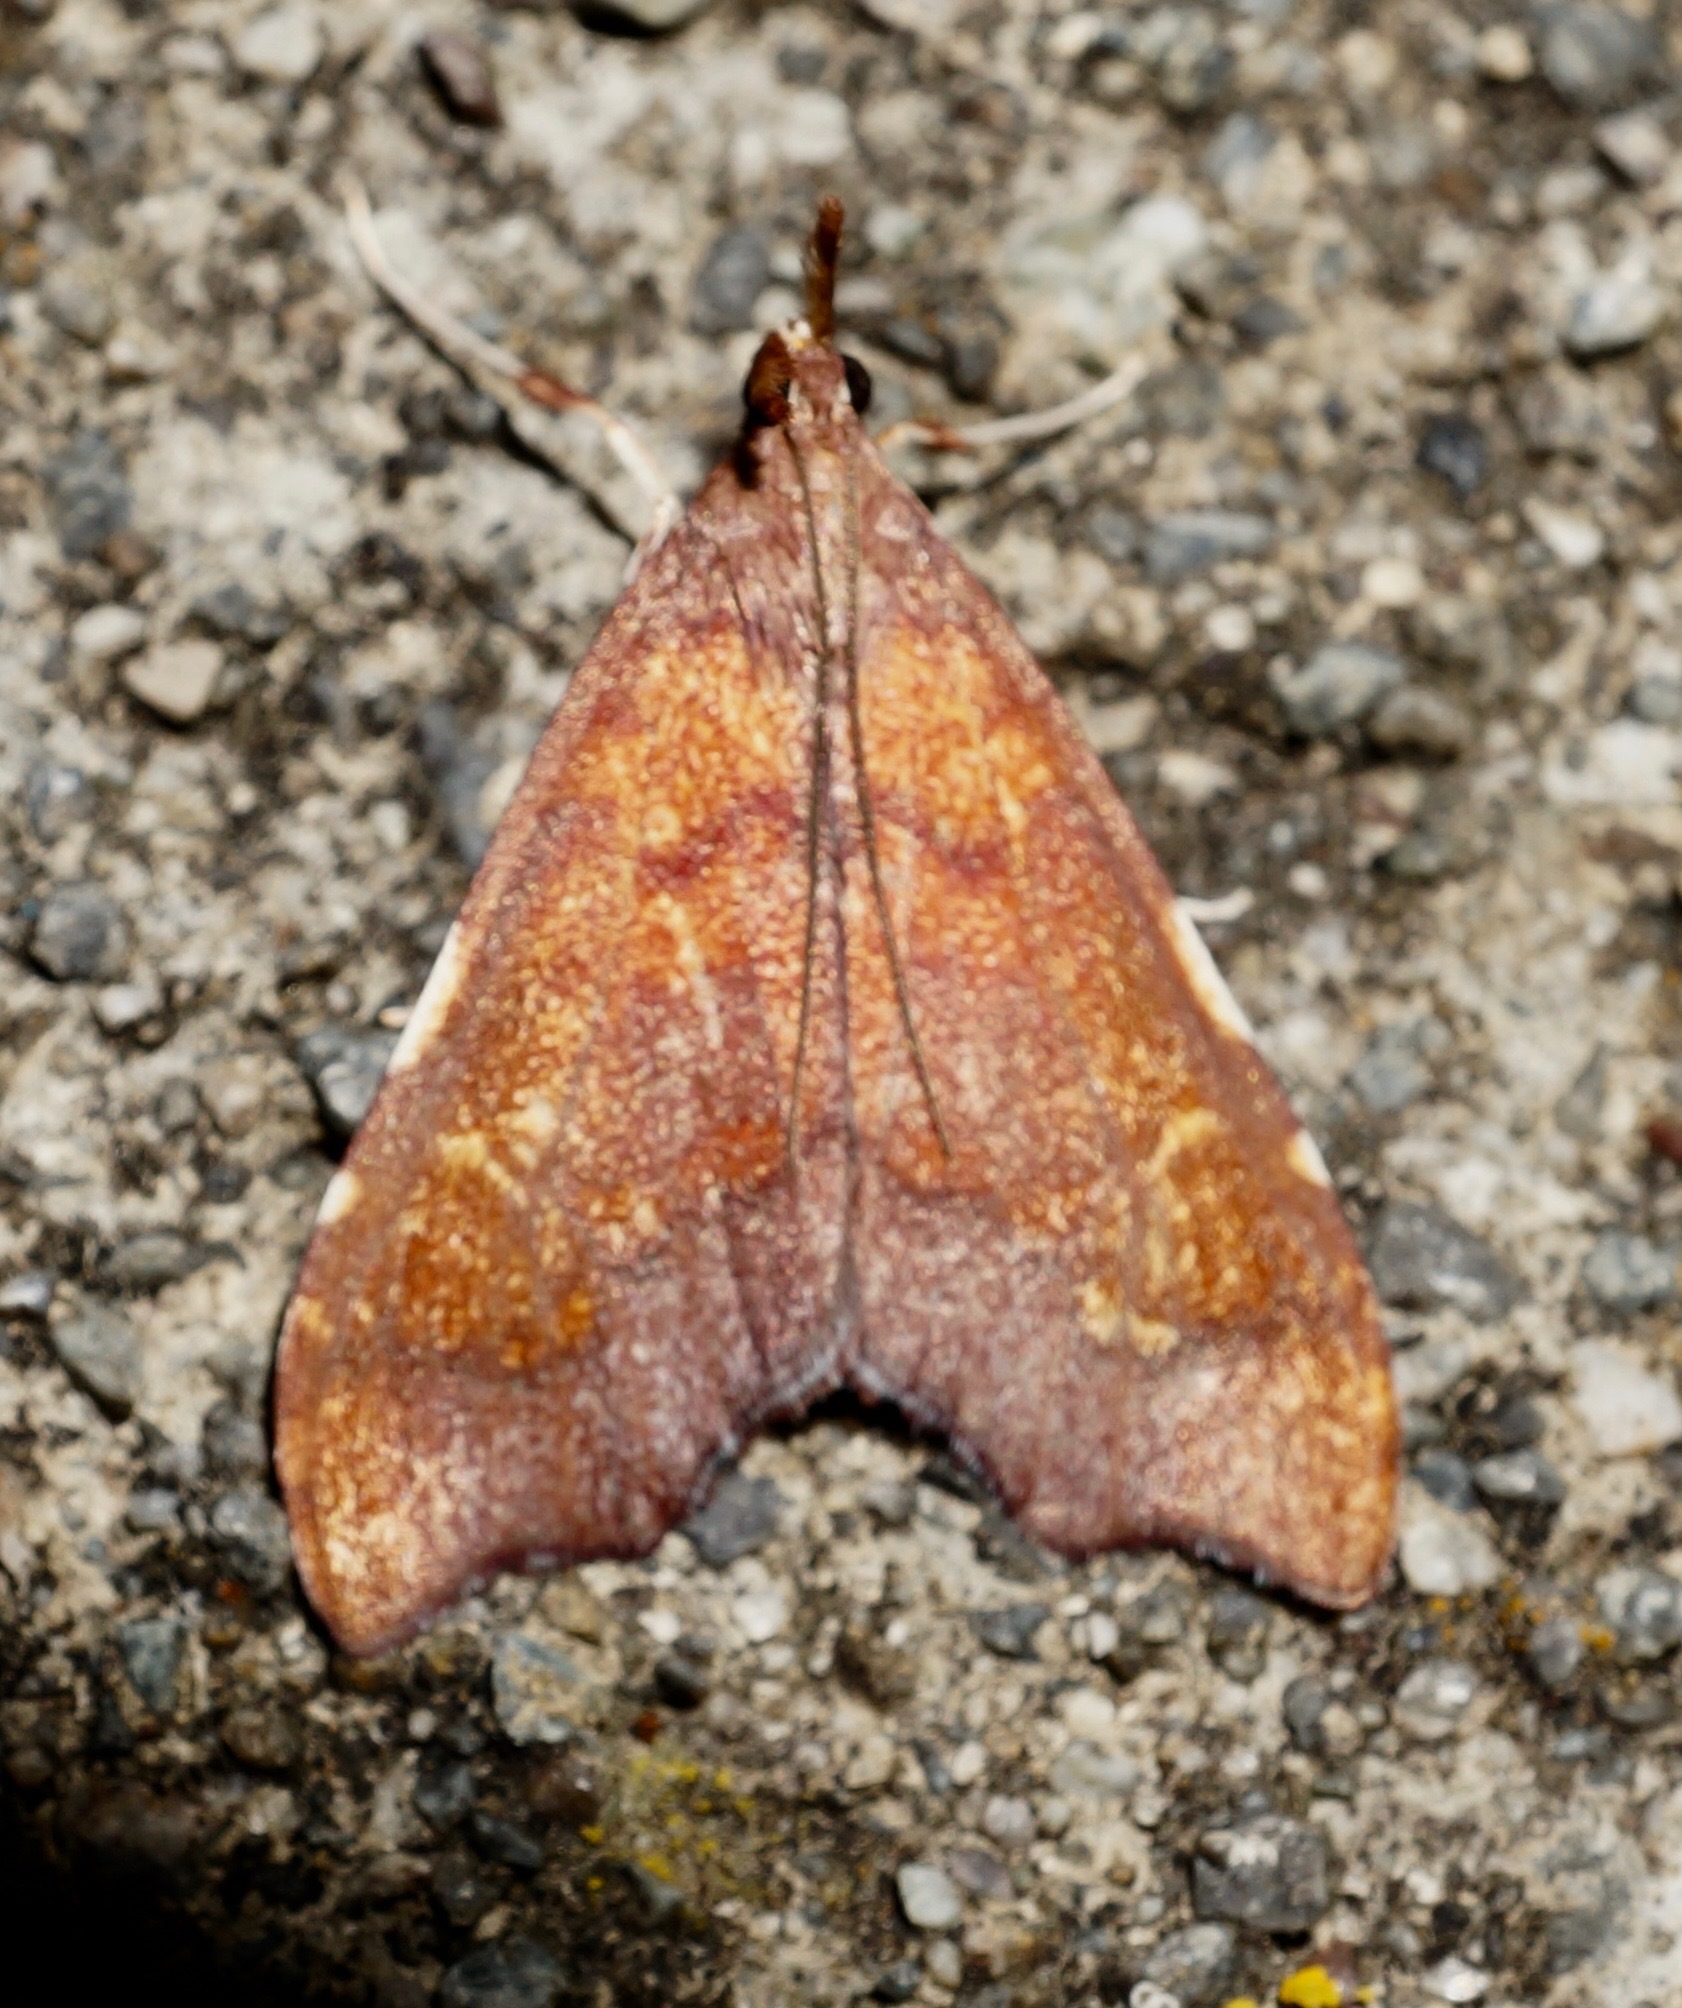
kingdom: Animalia
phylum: Arthropoda
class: Insecta
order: Lepidoptera
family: Crambidae
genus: Deana
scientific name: Deana hybreasalis
